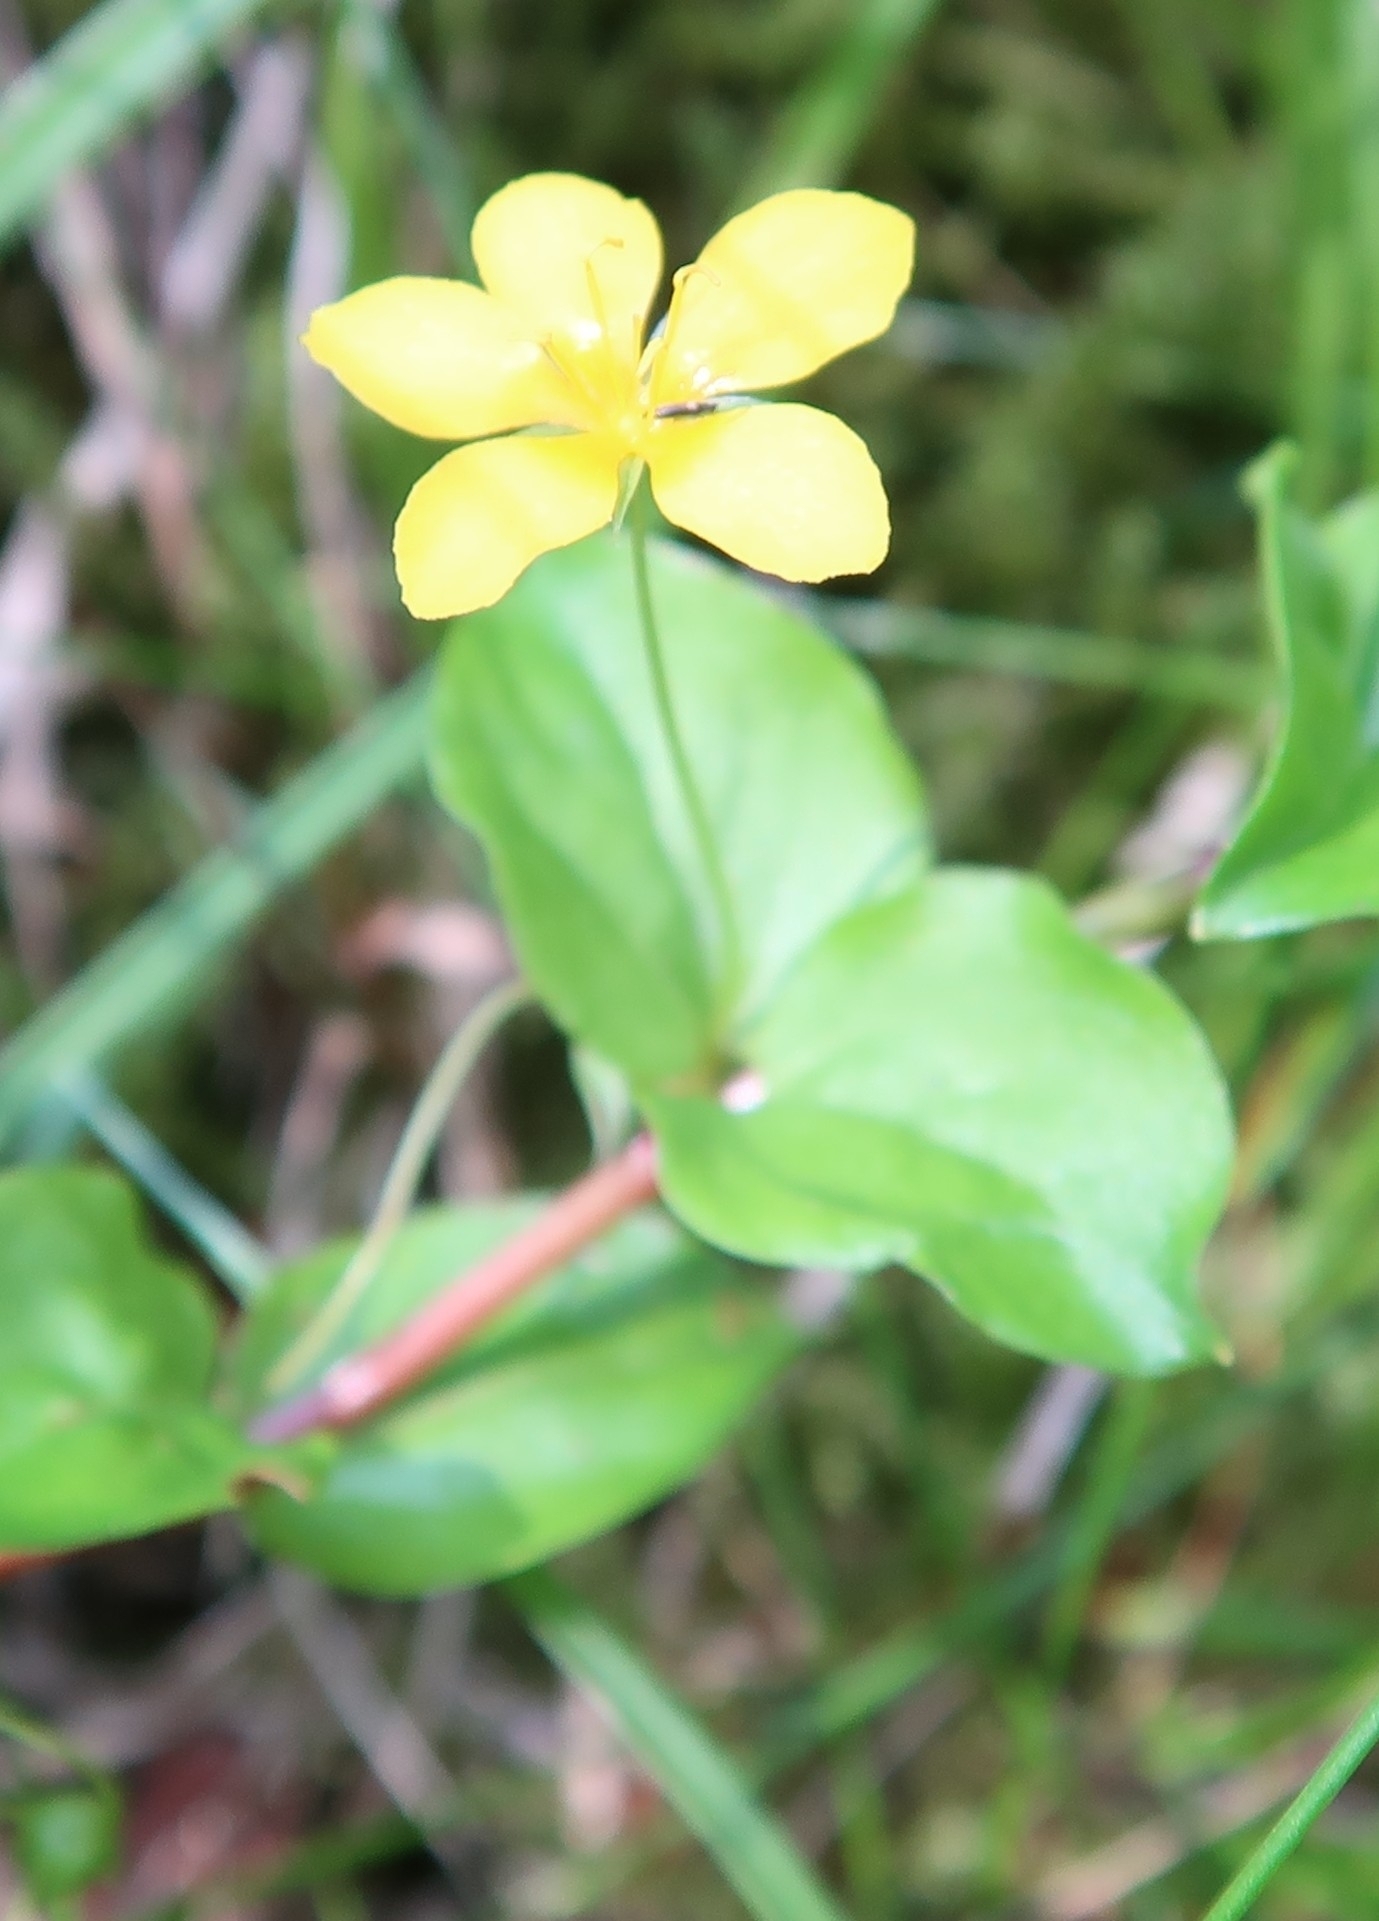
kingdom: Plantae
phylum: Tracheophyta
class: Magnoliopsida
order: Ericales
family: Primulaceae
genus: Lysimachia
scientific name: Lysimachia nemorum
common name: Yellow pimpernel
